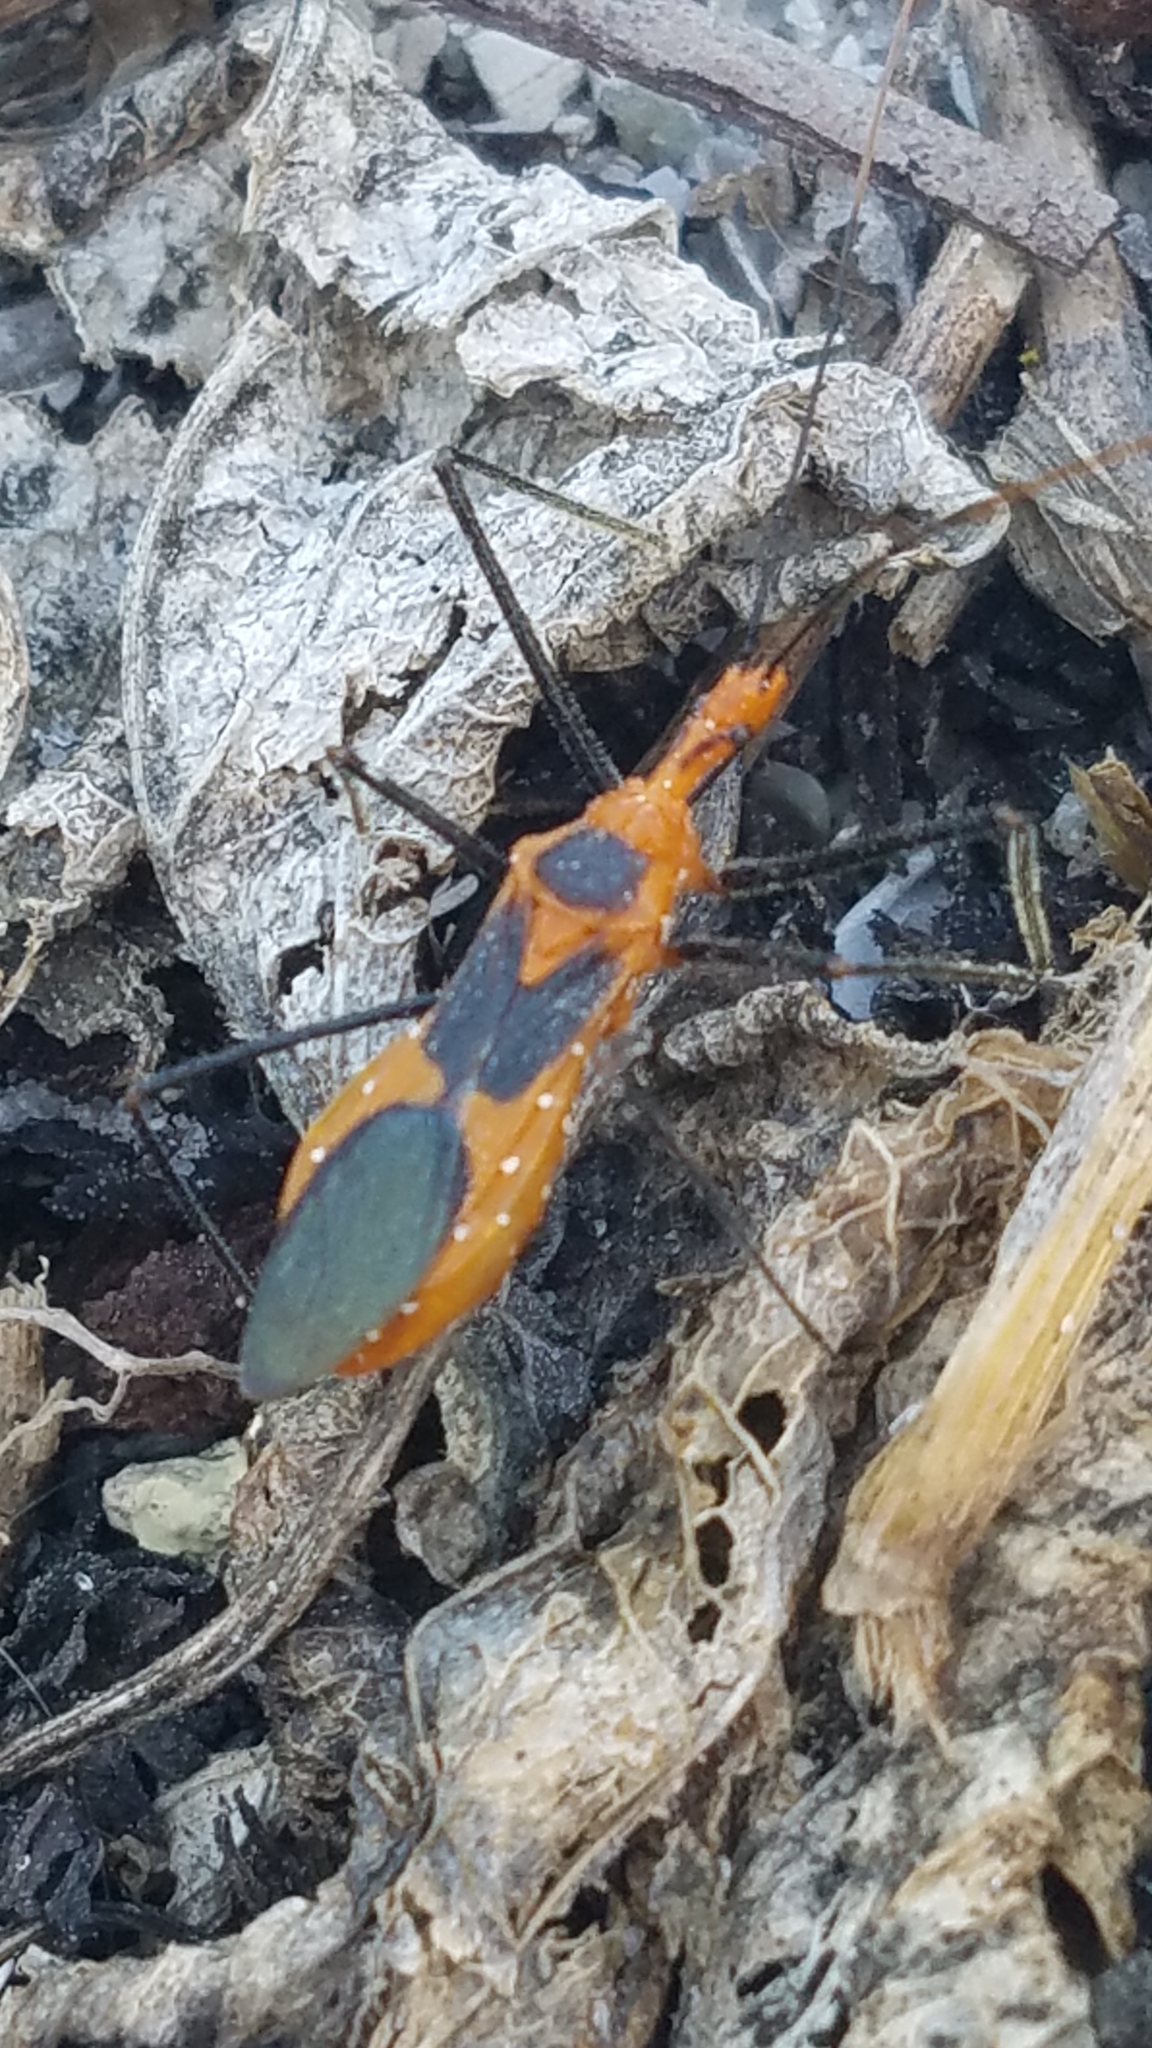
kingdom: Animalia
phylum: Arthropoda
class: Insecta
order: Hemiptera
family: Reduviidae
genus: Zelus
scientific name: Zelus longipes
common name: Milkweed assassin bug
